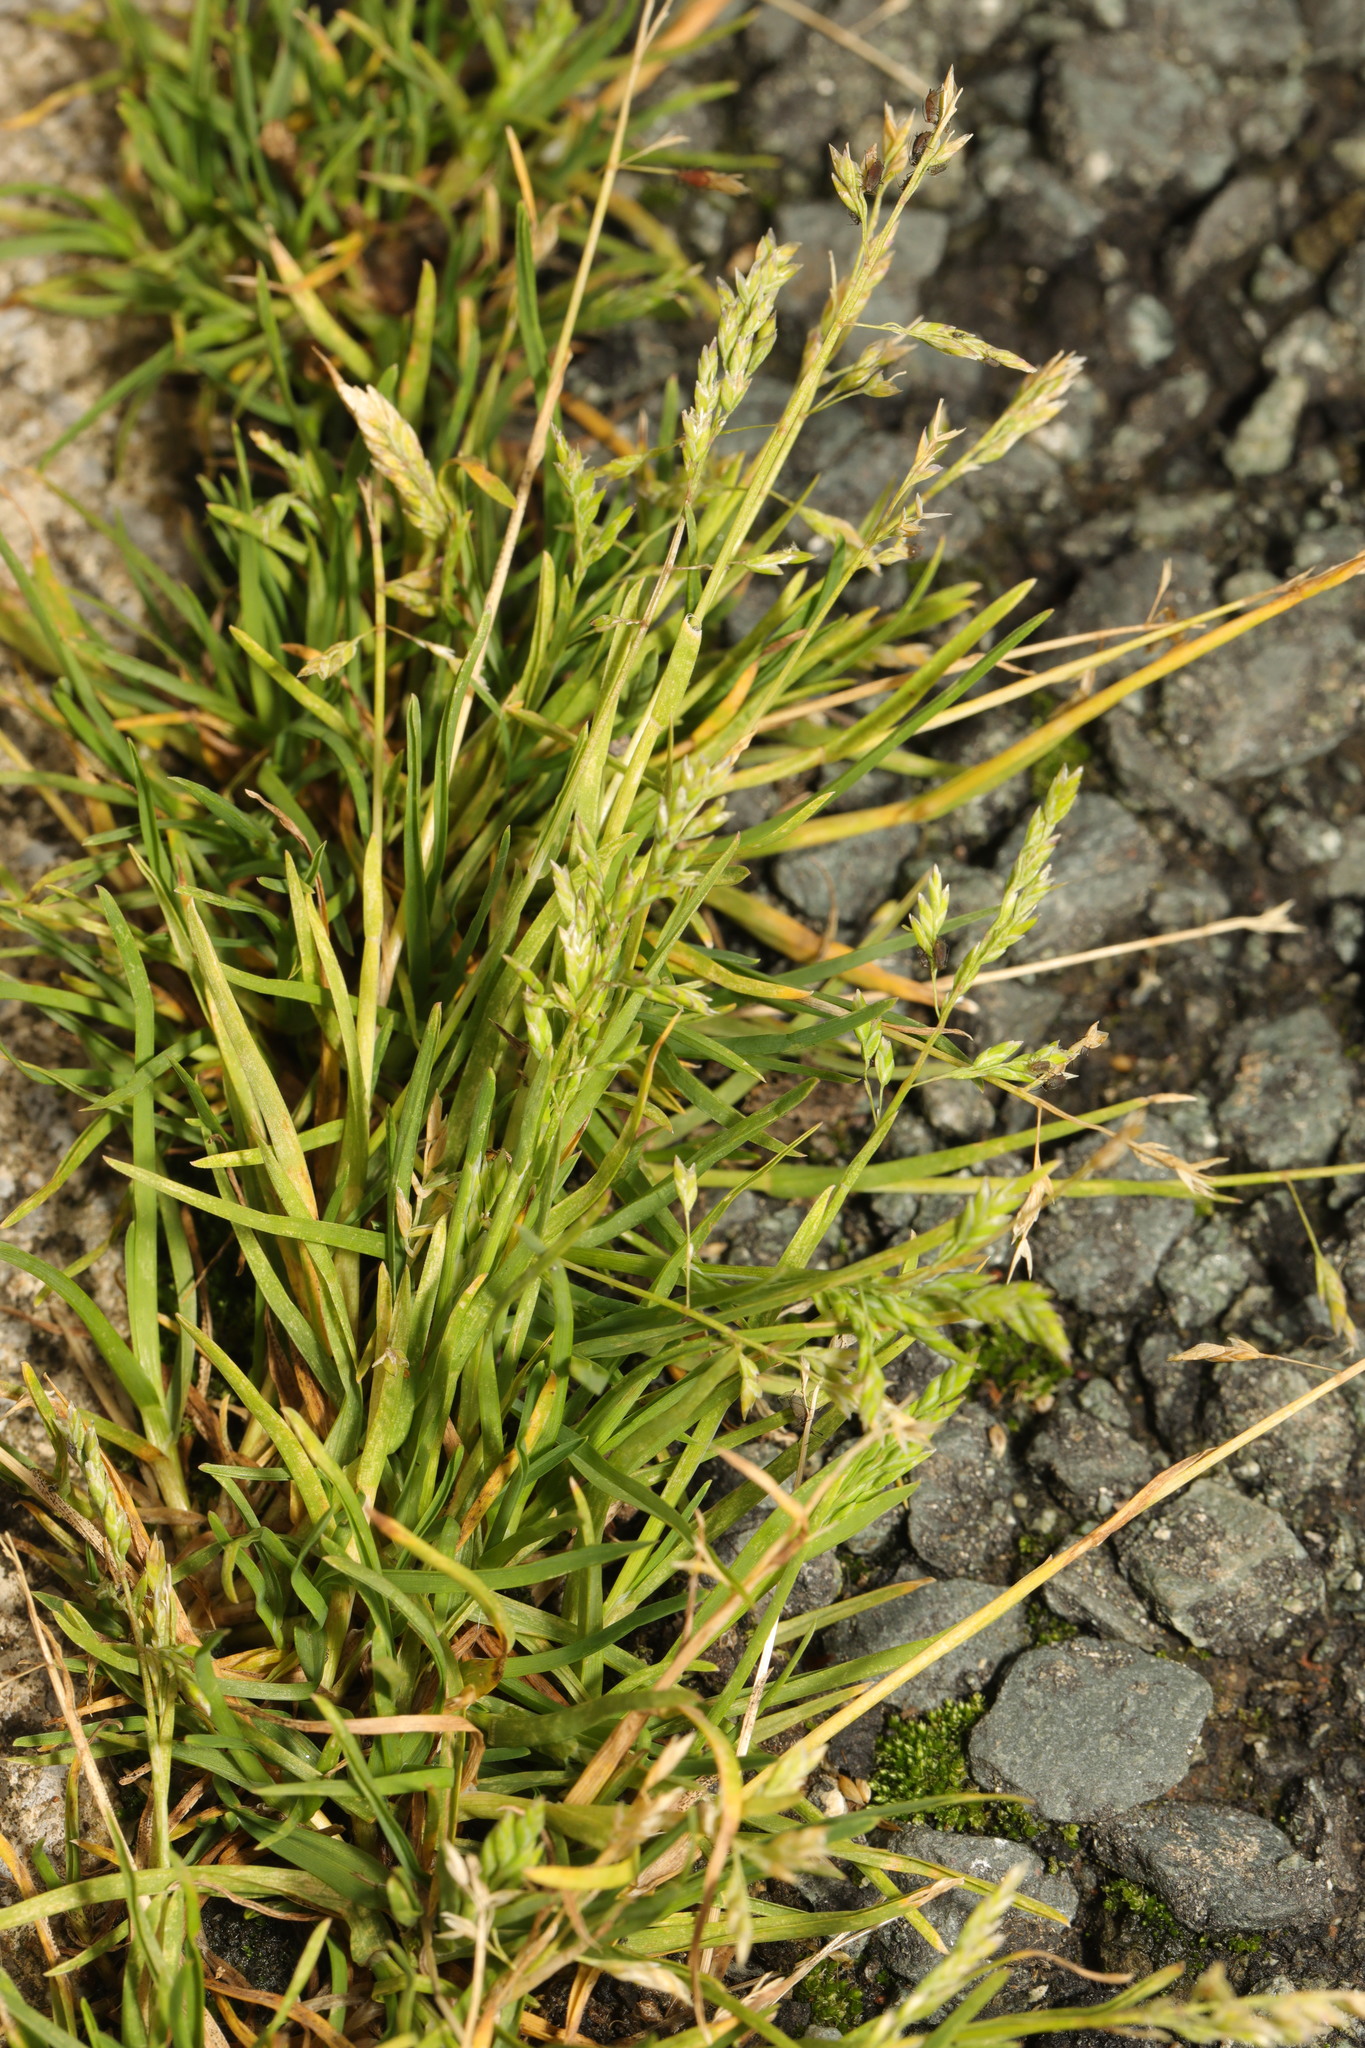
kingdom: Plantae
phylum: Tracheophyta
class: Liliopsida
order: Poales
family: Poaceae
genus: Poa
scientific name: Poa annua
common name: Annual bluegrass
